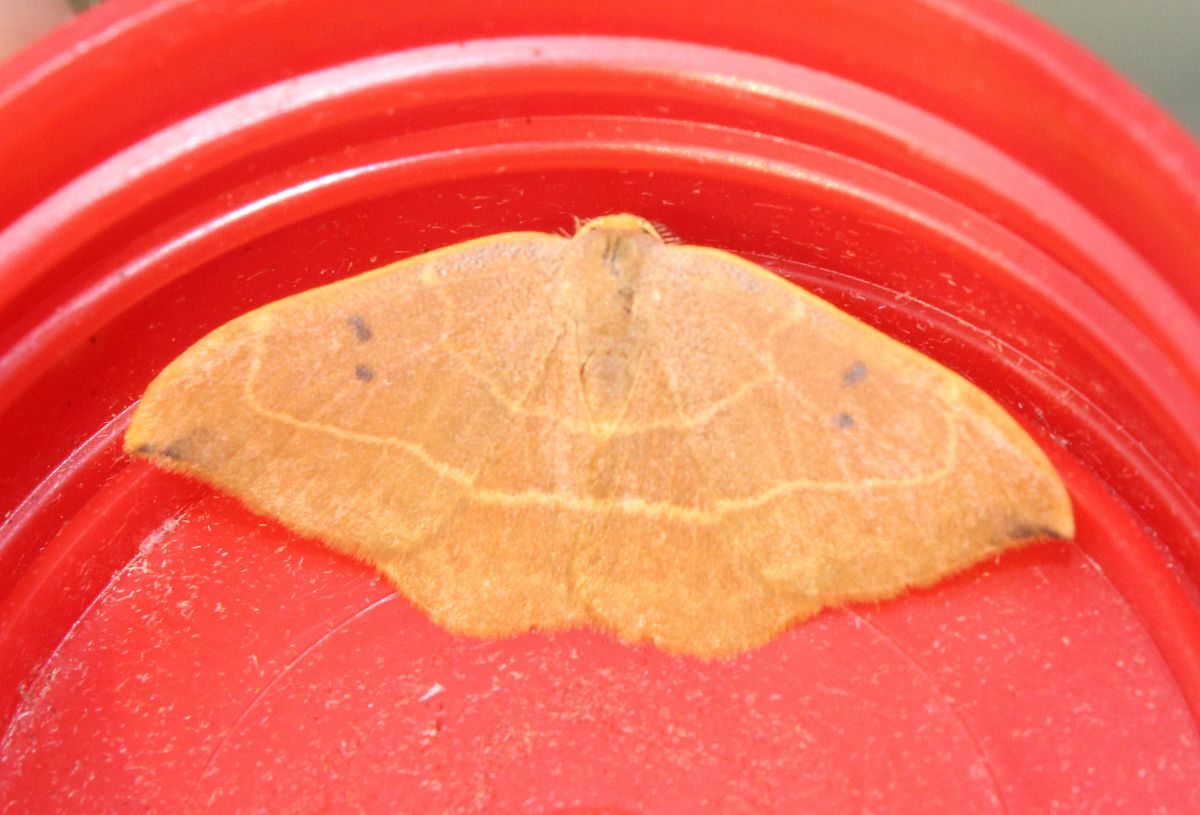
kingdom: Animalia
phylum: Arthropoda
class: Insecta
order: Lepidoptera
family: Drepanidae
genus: Watsonalla
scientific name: Watsonalla binaria
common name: Oak hook-tip
